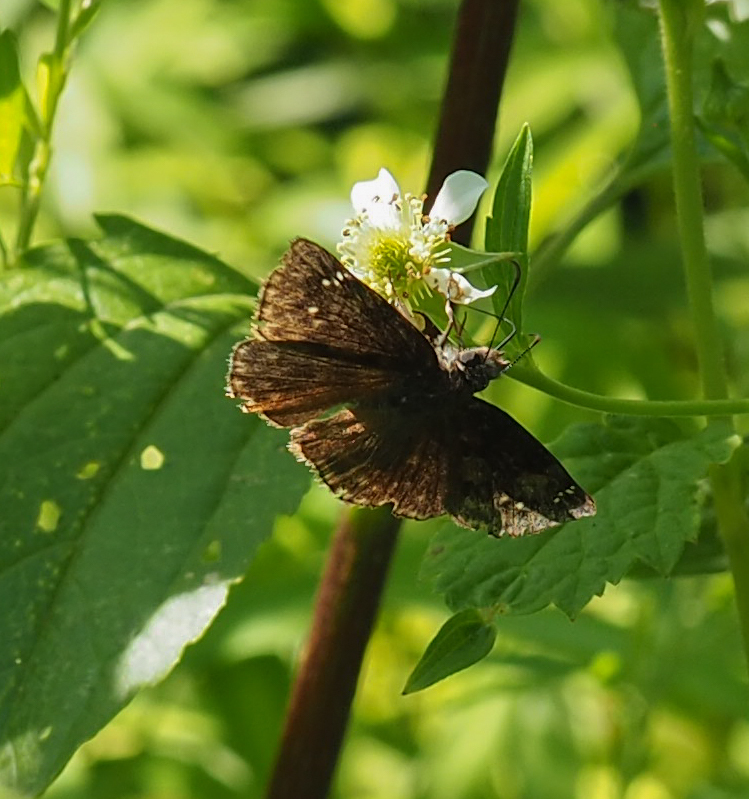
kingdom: Animalia
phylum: Arthropoda
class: Insecta
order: Lepidoptera
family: Hesperiidae
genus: Erynnis
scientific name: Erynnis baptisiae
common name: Wild indigo duskywing
